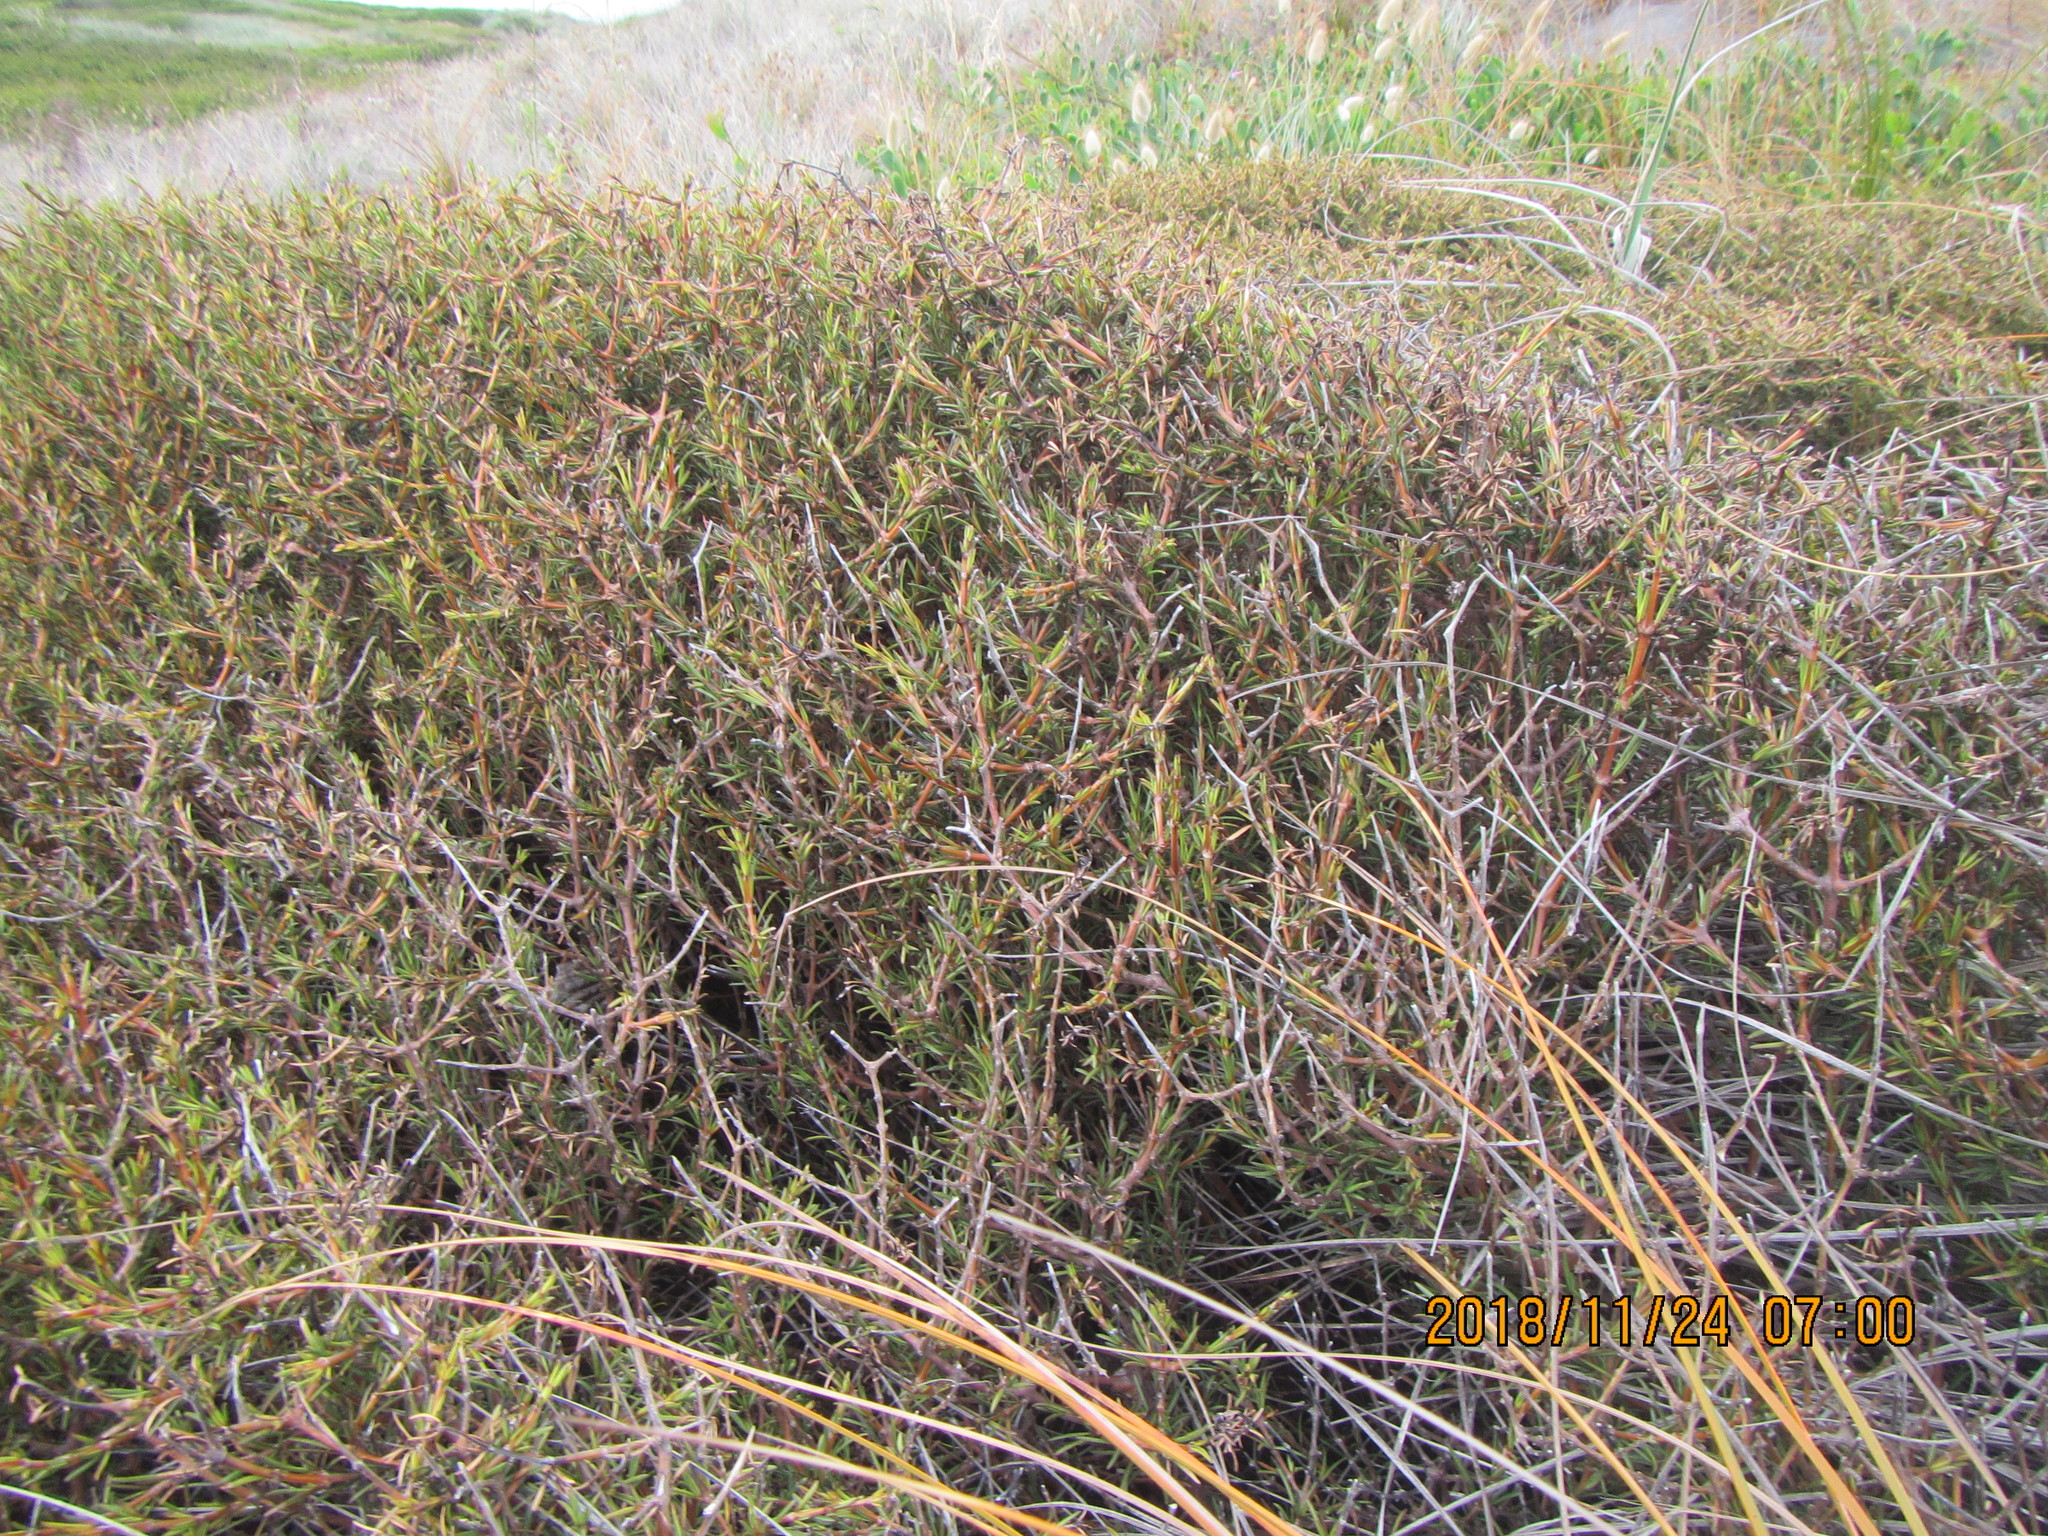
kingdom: Plantae
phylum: Tracheophyta
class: Magnoliopsida
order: Gentianales
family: Rubiaceae
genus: Coprosma
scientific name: Coprosma acerosa
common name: Sand coprosma
